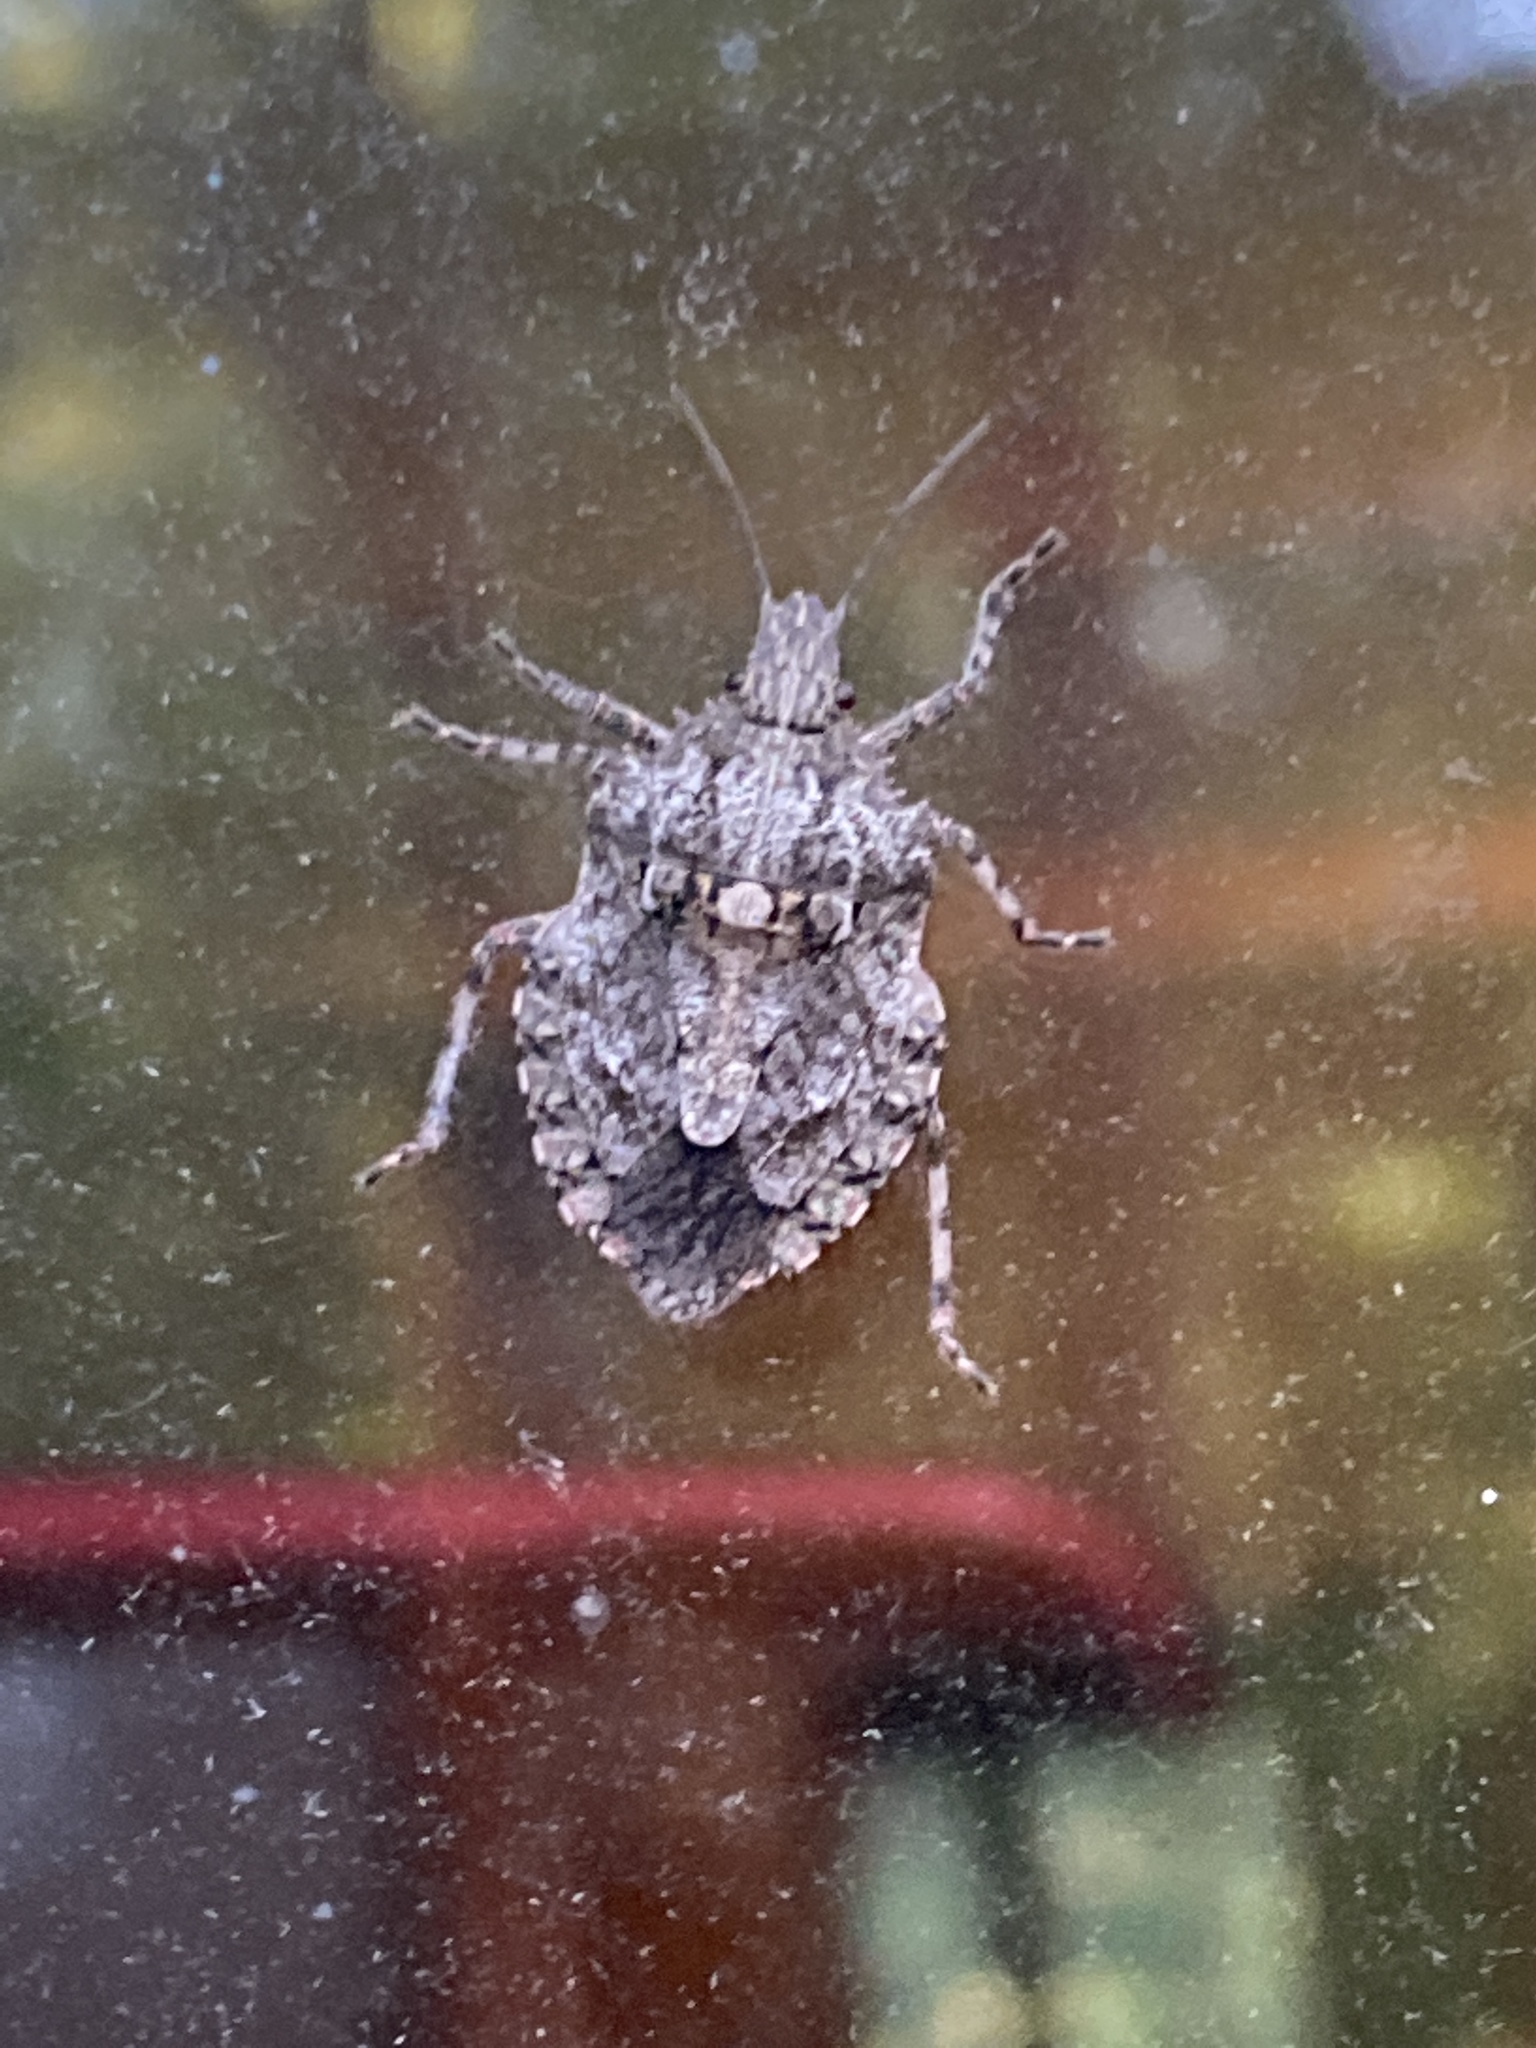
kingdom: Animalia
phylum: Arthropoda
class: Insecta
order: Hemiptera
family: Pentatomidae
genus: Brochymena
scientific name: Brochymena arborea
